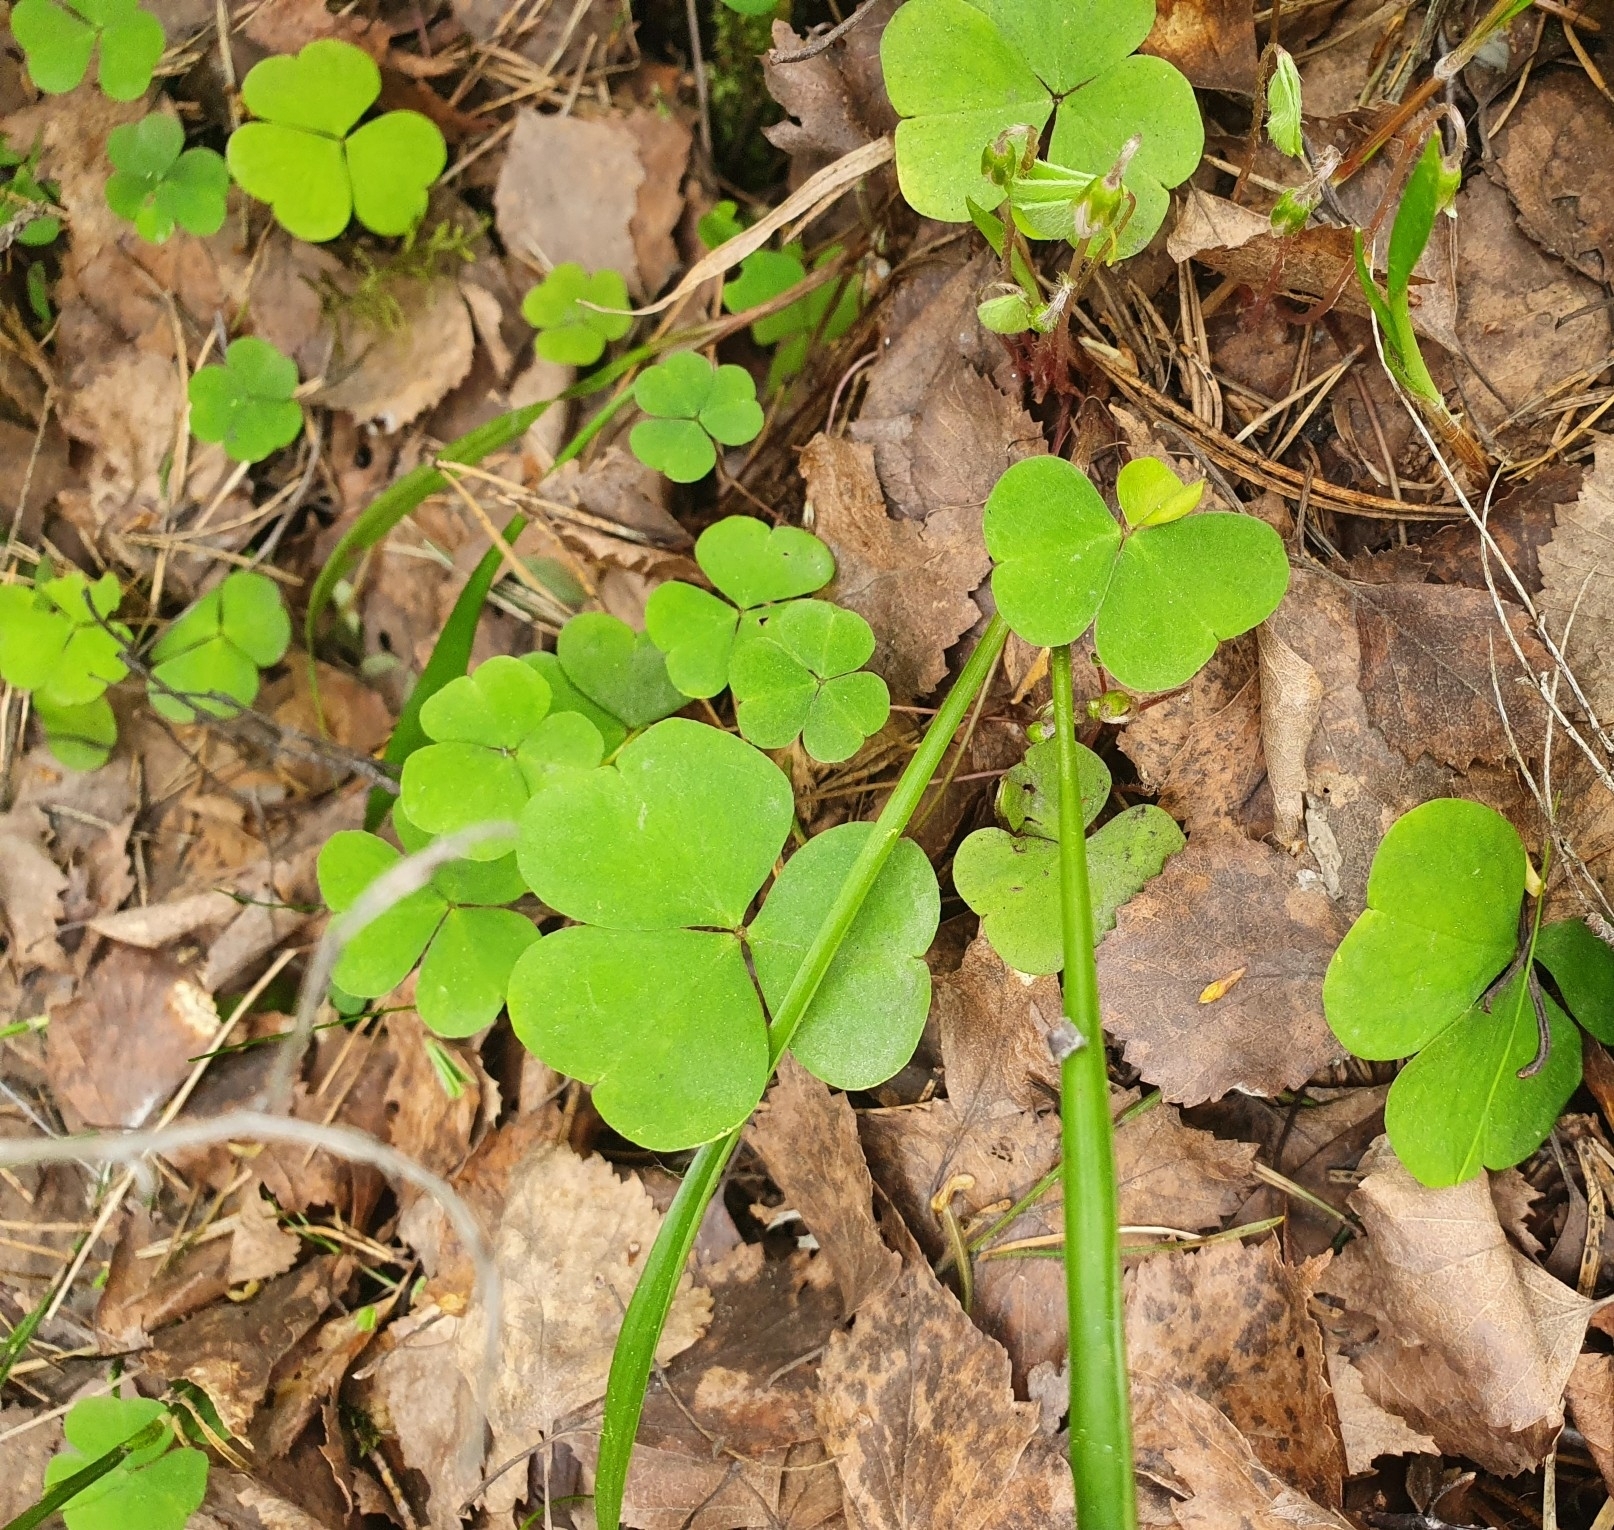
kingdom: Plantae
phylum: Tracheophyta
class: Magnoliopsida
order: Oxalidales
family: Oxalidaceae
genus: Oxalis
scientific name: Oxalis acetosella
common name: Wood-sorrel
